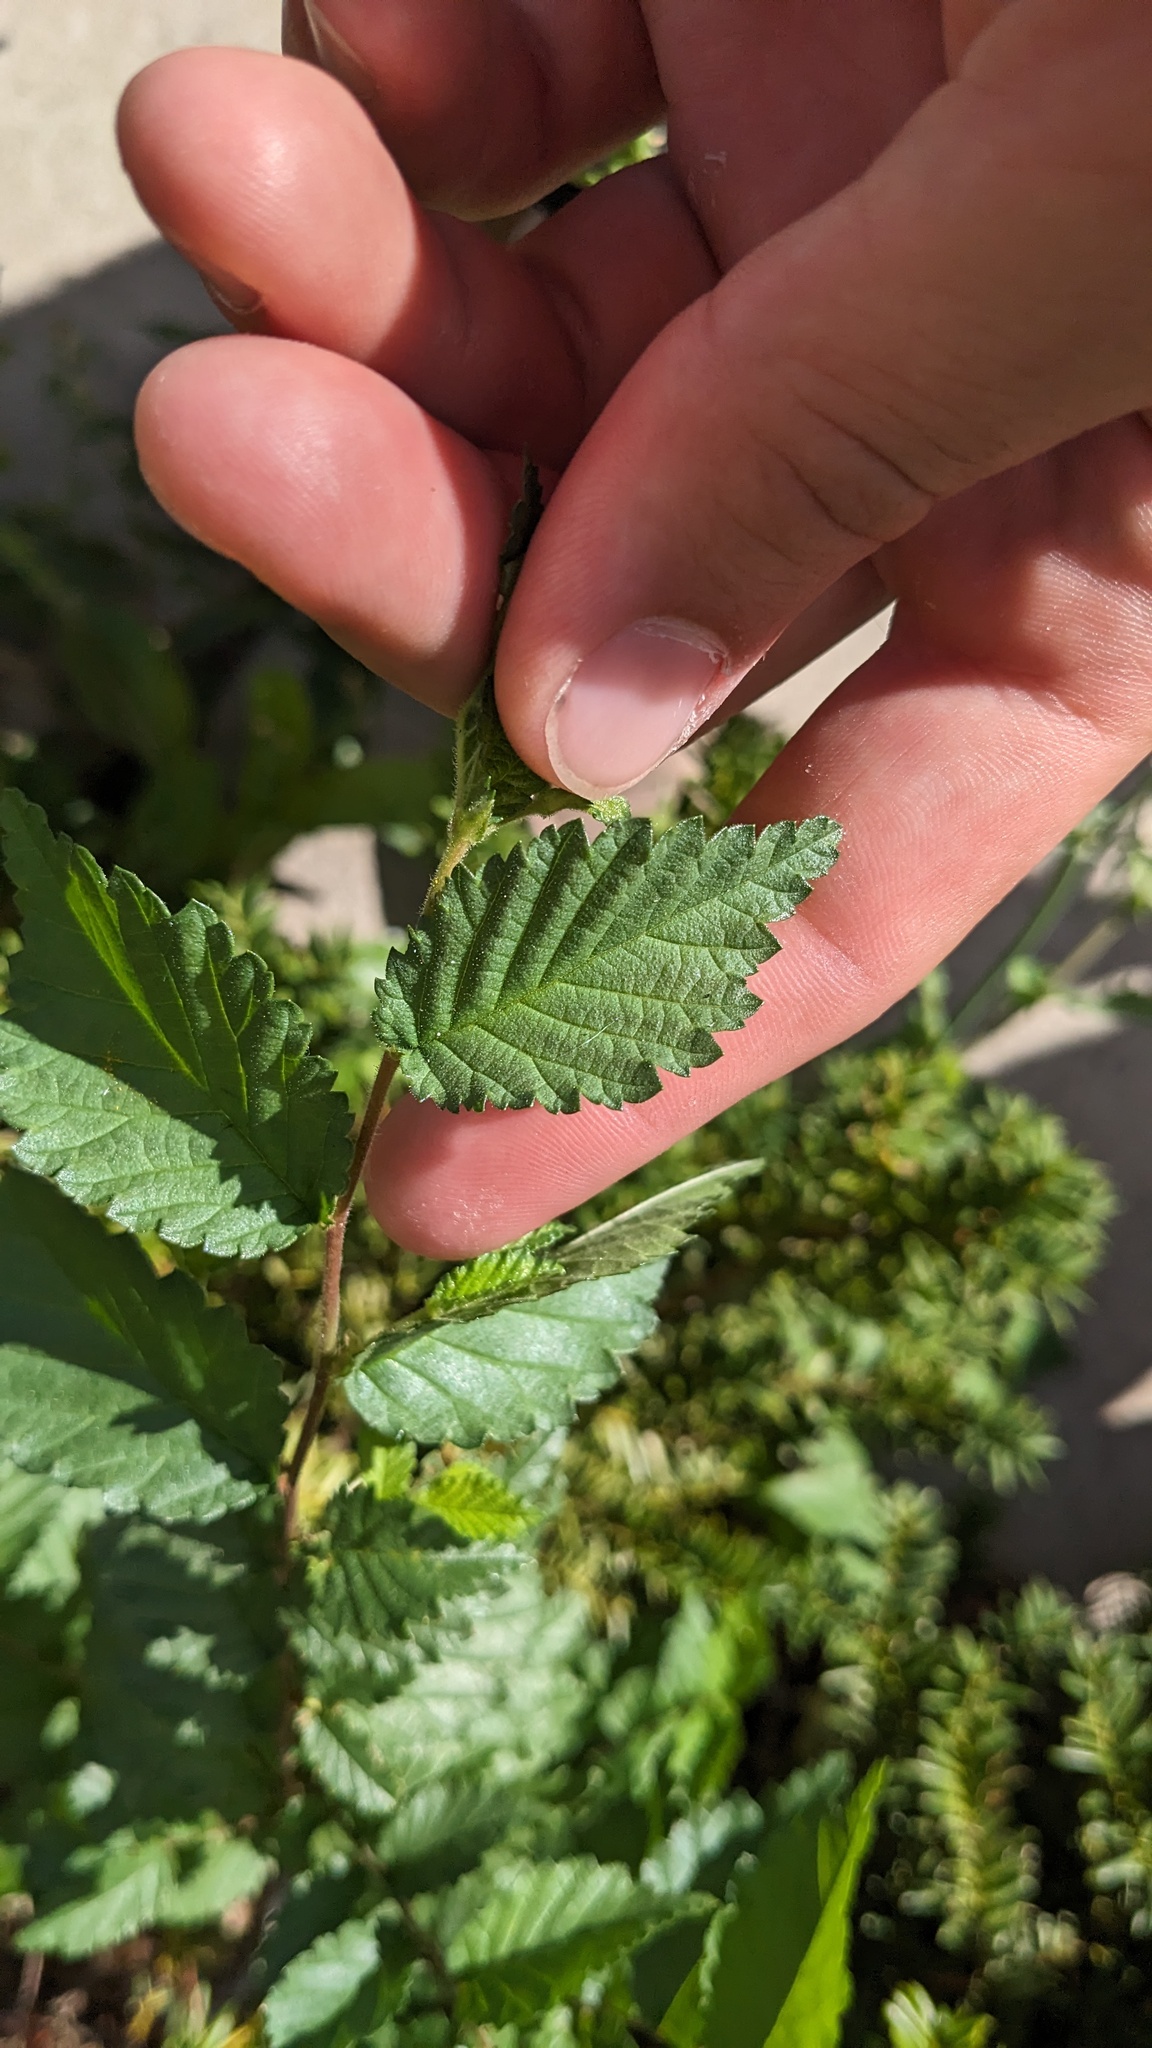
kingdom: Plantae
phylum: Tracheophyta
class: Magnoliopsida
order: Rosales
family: Ulmaceae
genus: Ulmus
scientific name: Ulmus pumila
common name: Siberian elm
